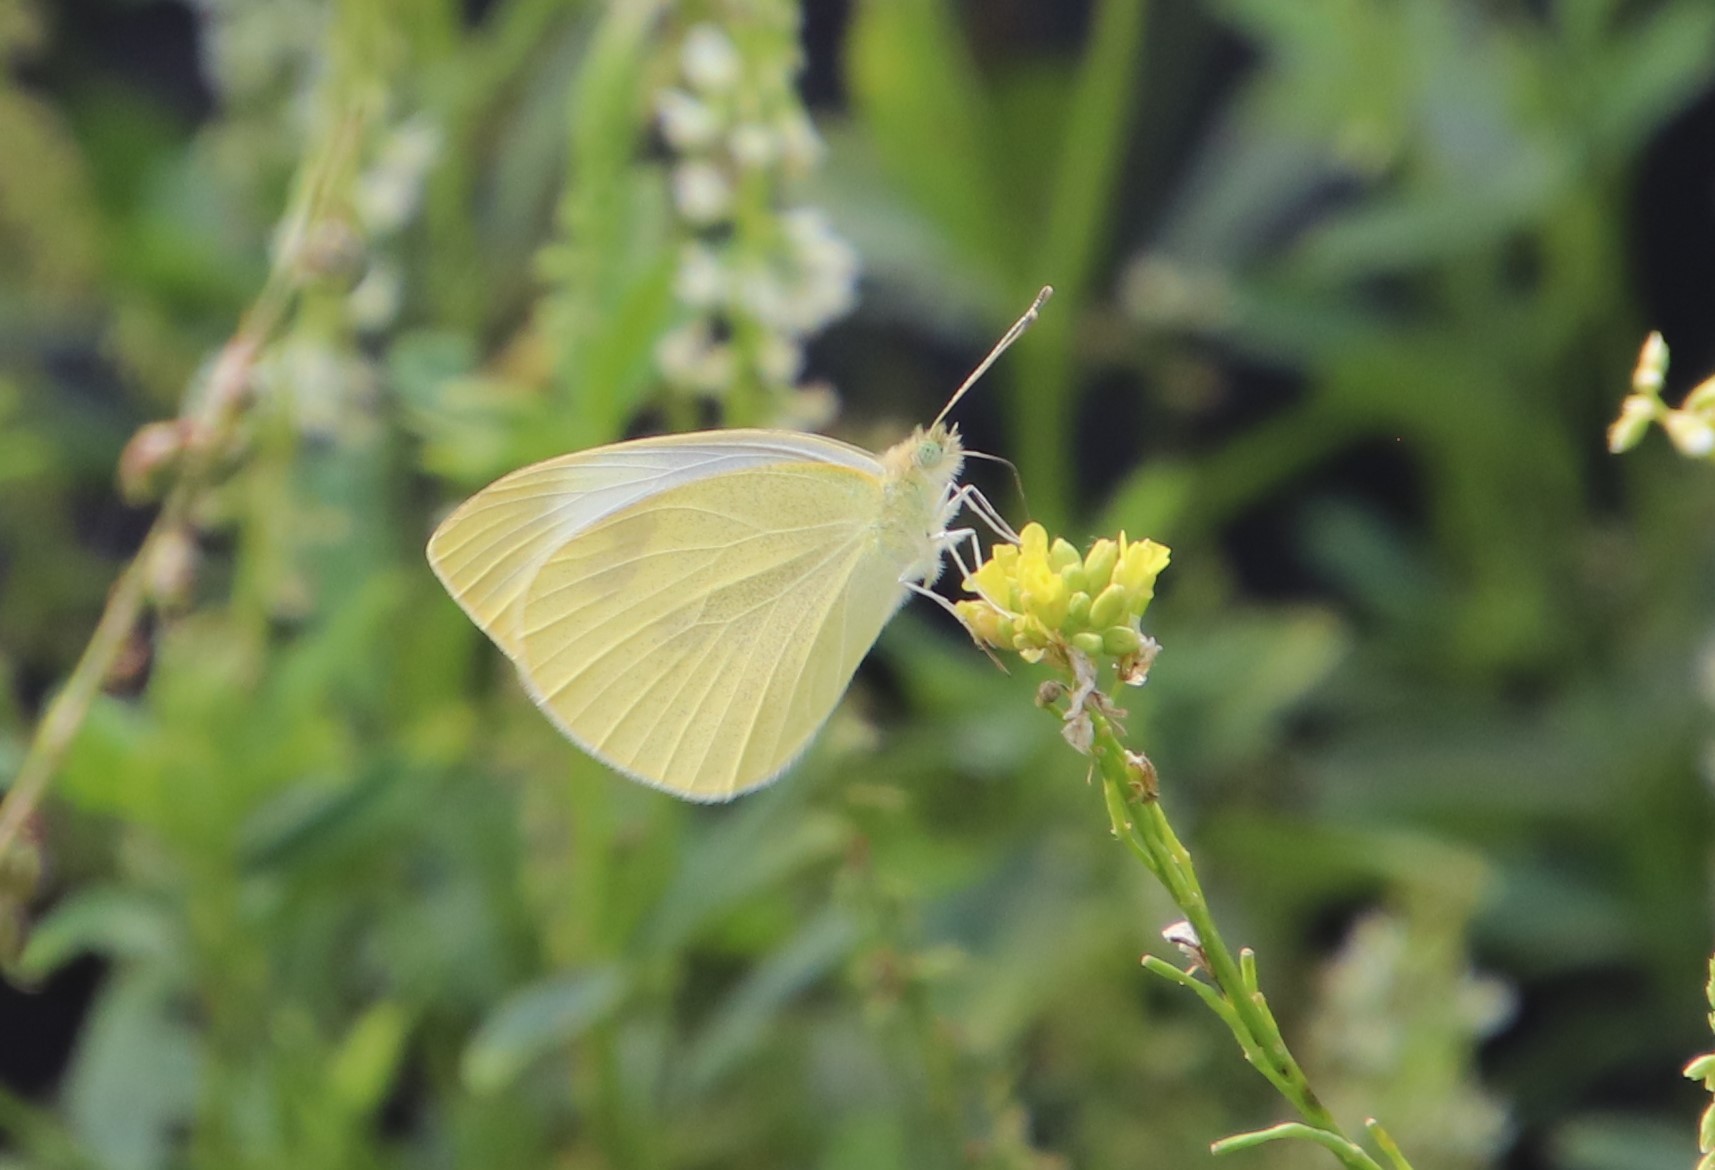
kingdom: Animalia
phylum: Arthropoda
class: Insecta
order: Lepidoptera
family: Pieridae
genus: Pieris
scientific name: Pieris rapae
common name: Small white
